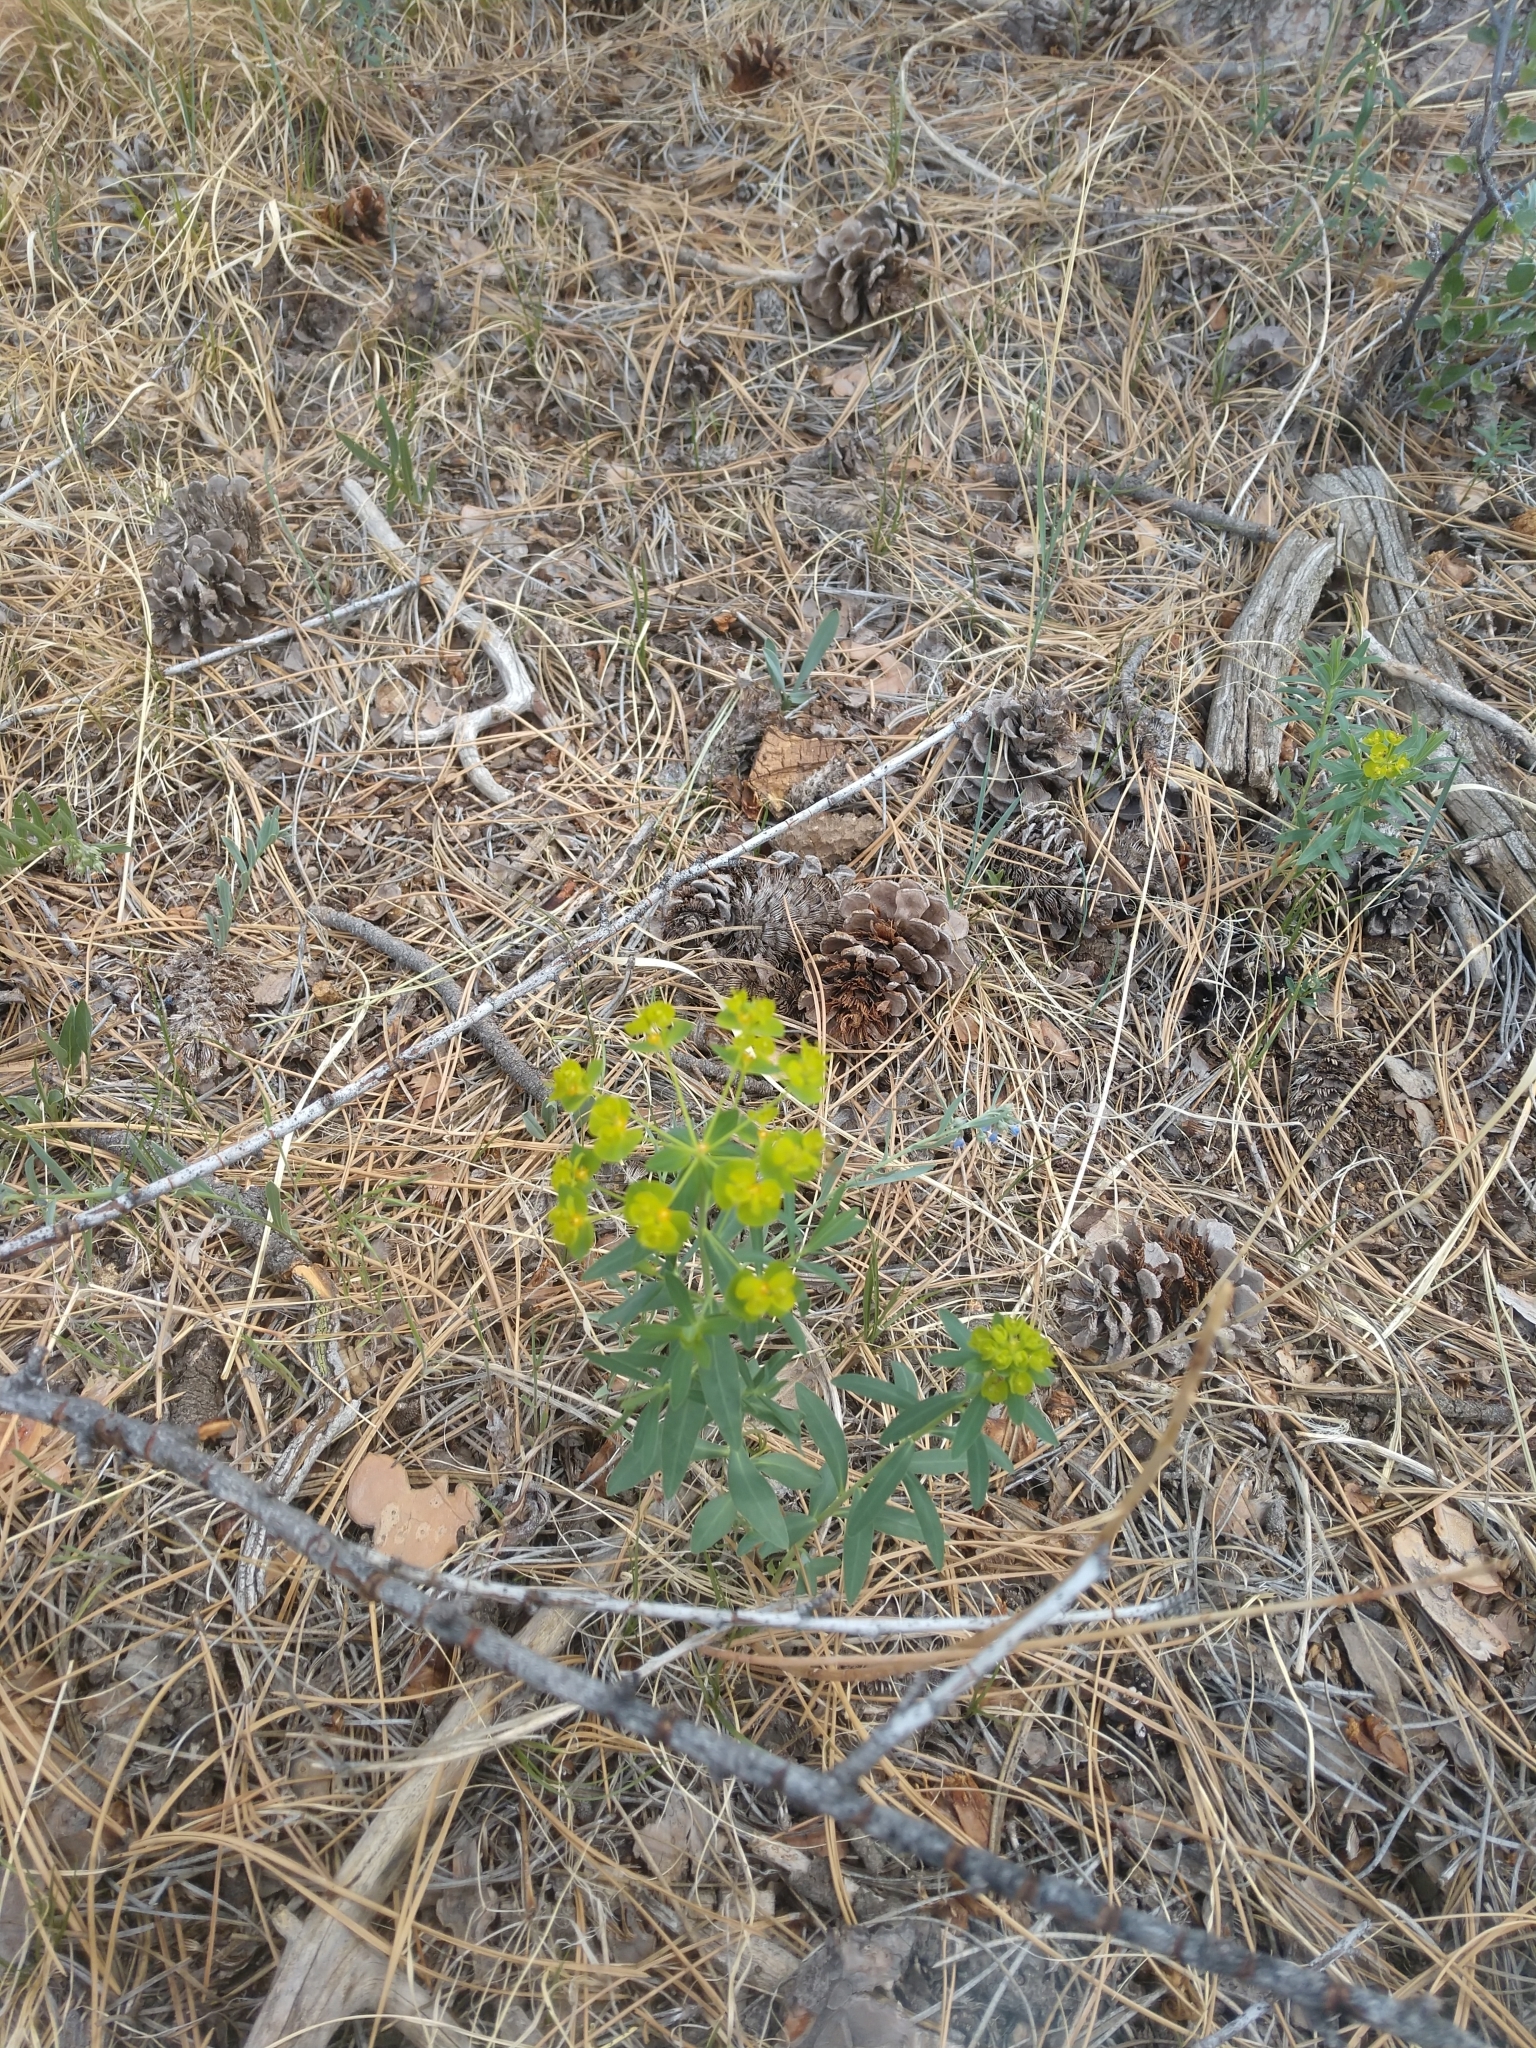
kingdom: Plantae
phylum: Tracheophyta
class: Magnoliopsida
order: Malpighiales
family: Euphorbiaceae
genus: Euphorbia
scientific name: Euphorbia esula
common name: Leafy spurge
